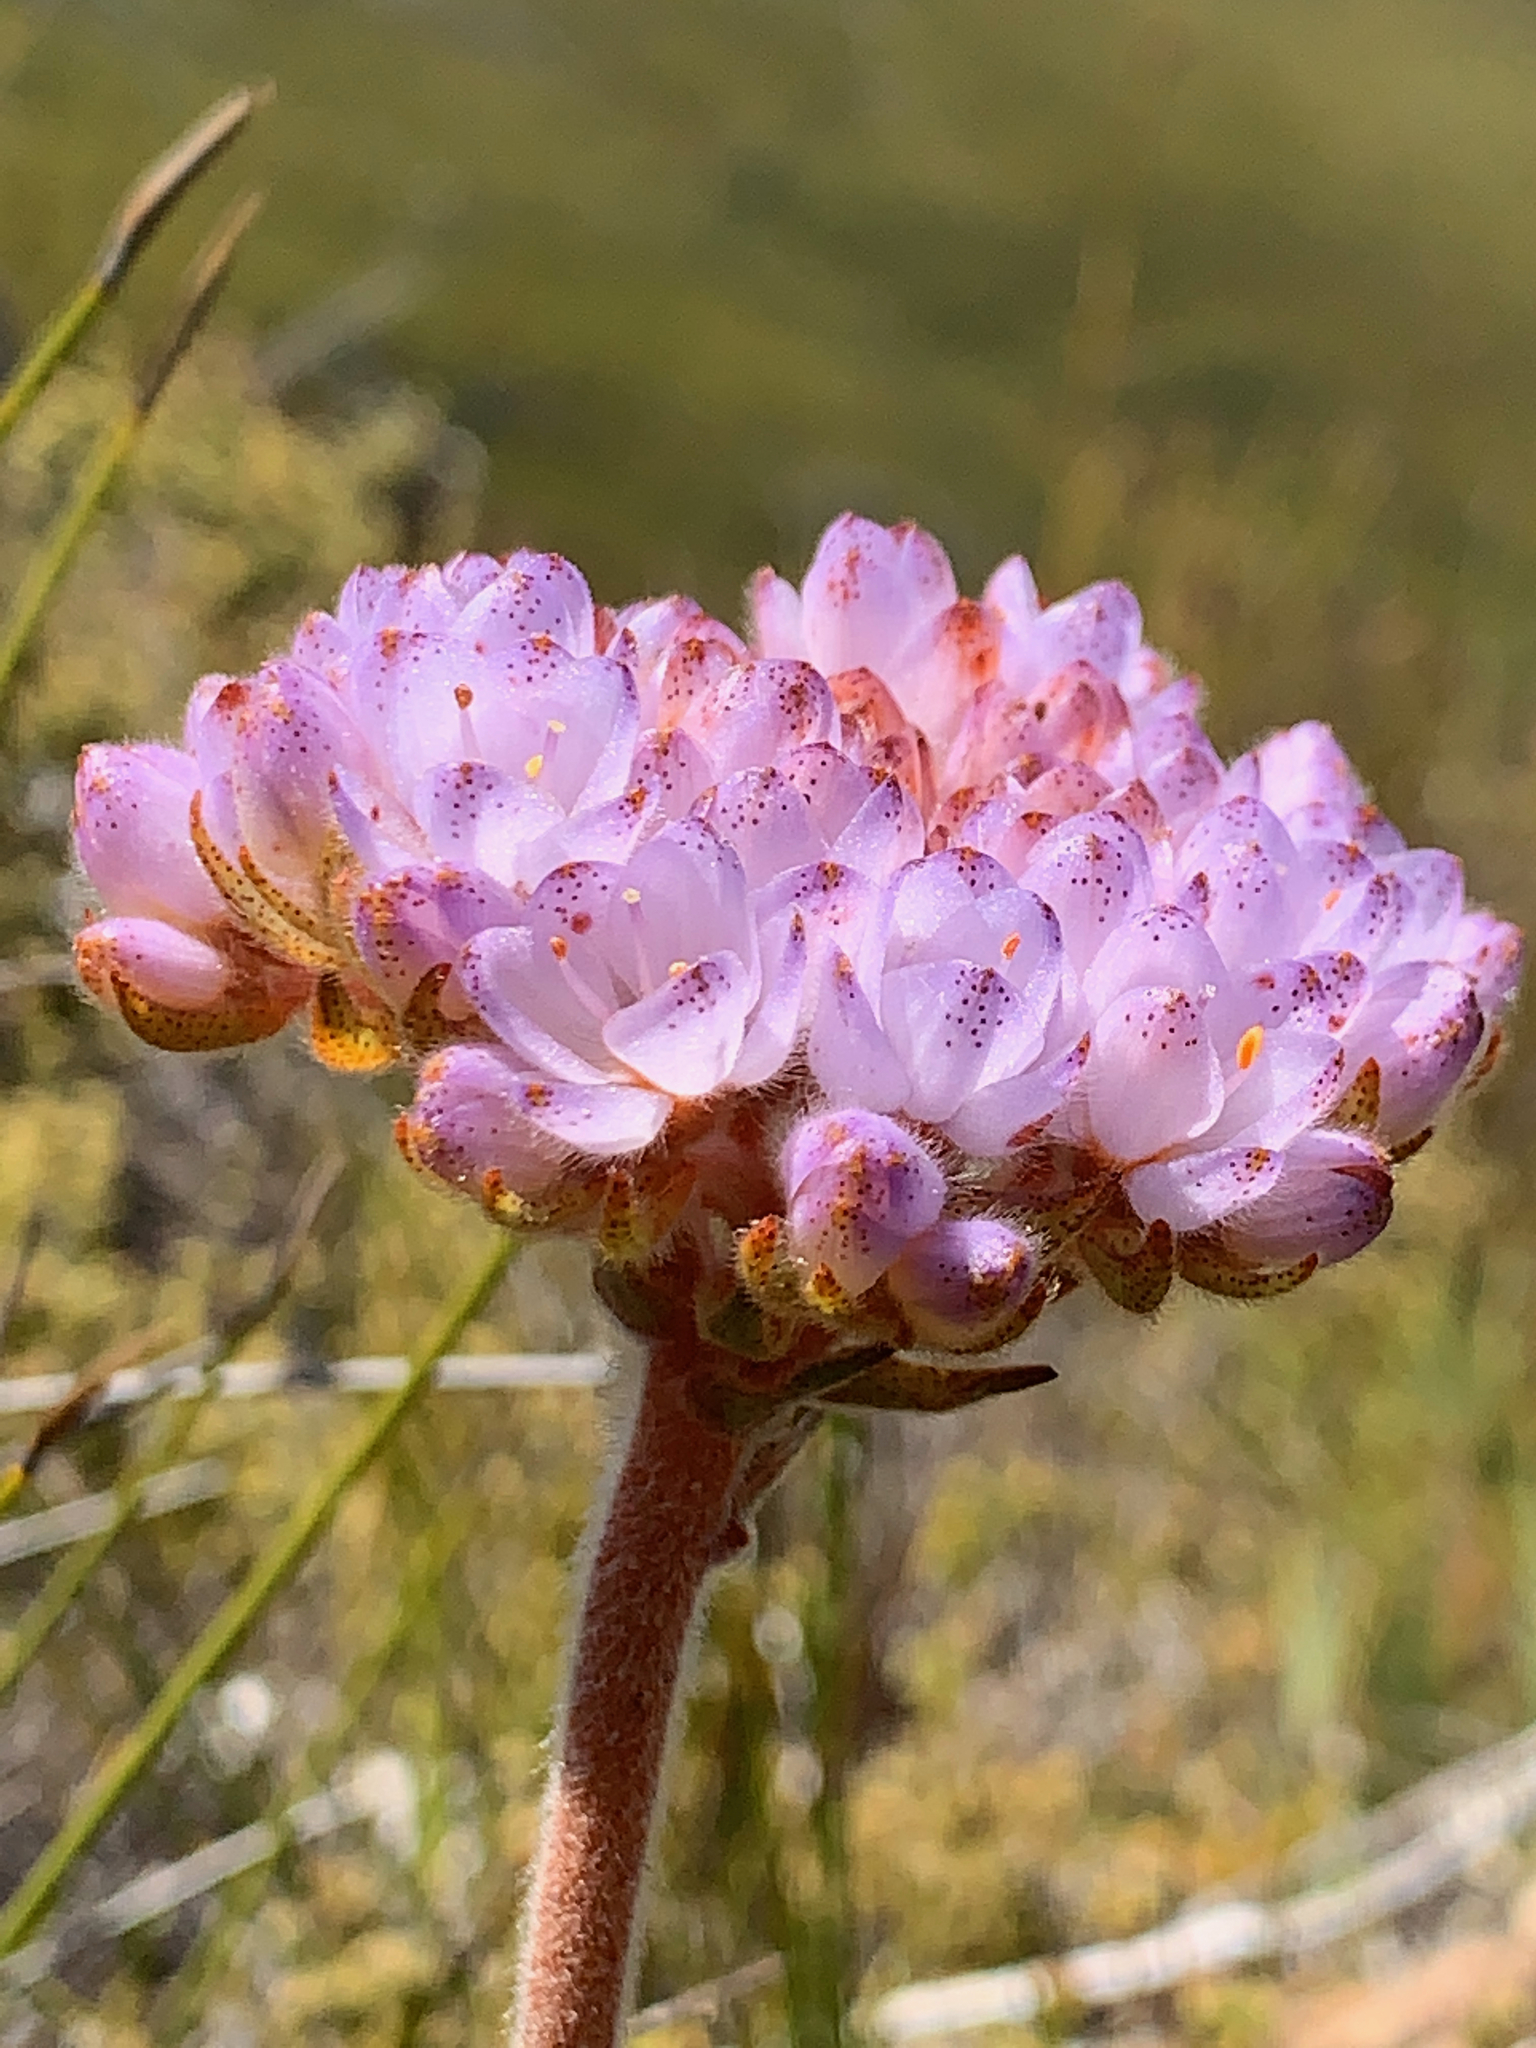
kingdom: Plantae
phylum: Tracheophyta
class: Liliopsida
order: Commelinales
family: Haemodoraceae
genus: Dilatris
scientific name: Dilatris pillansii
